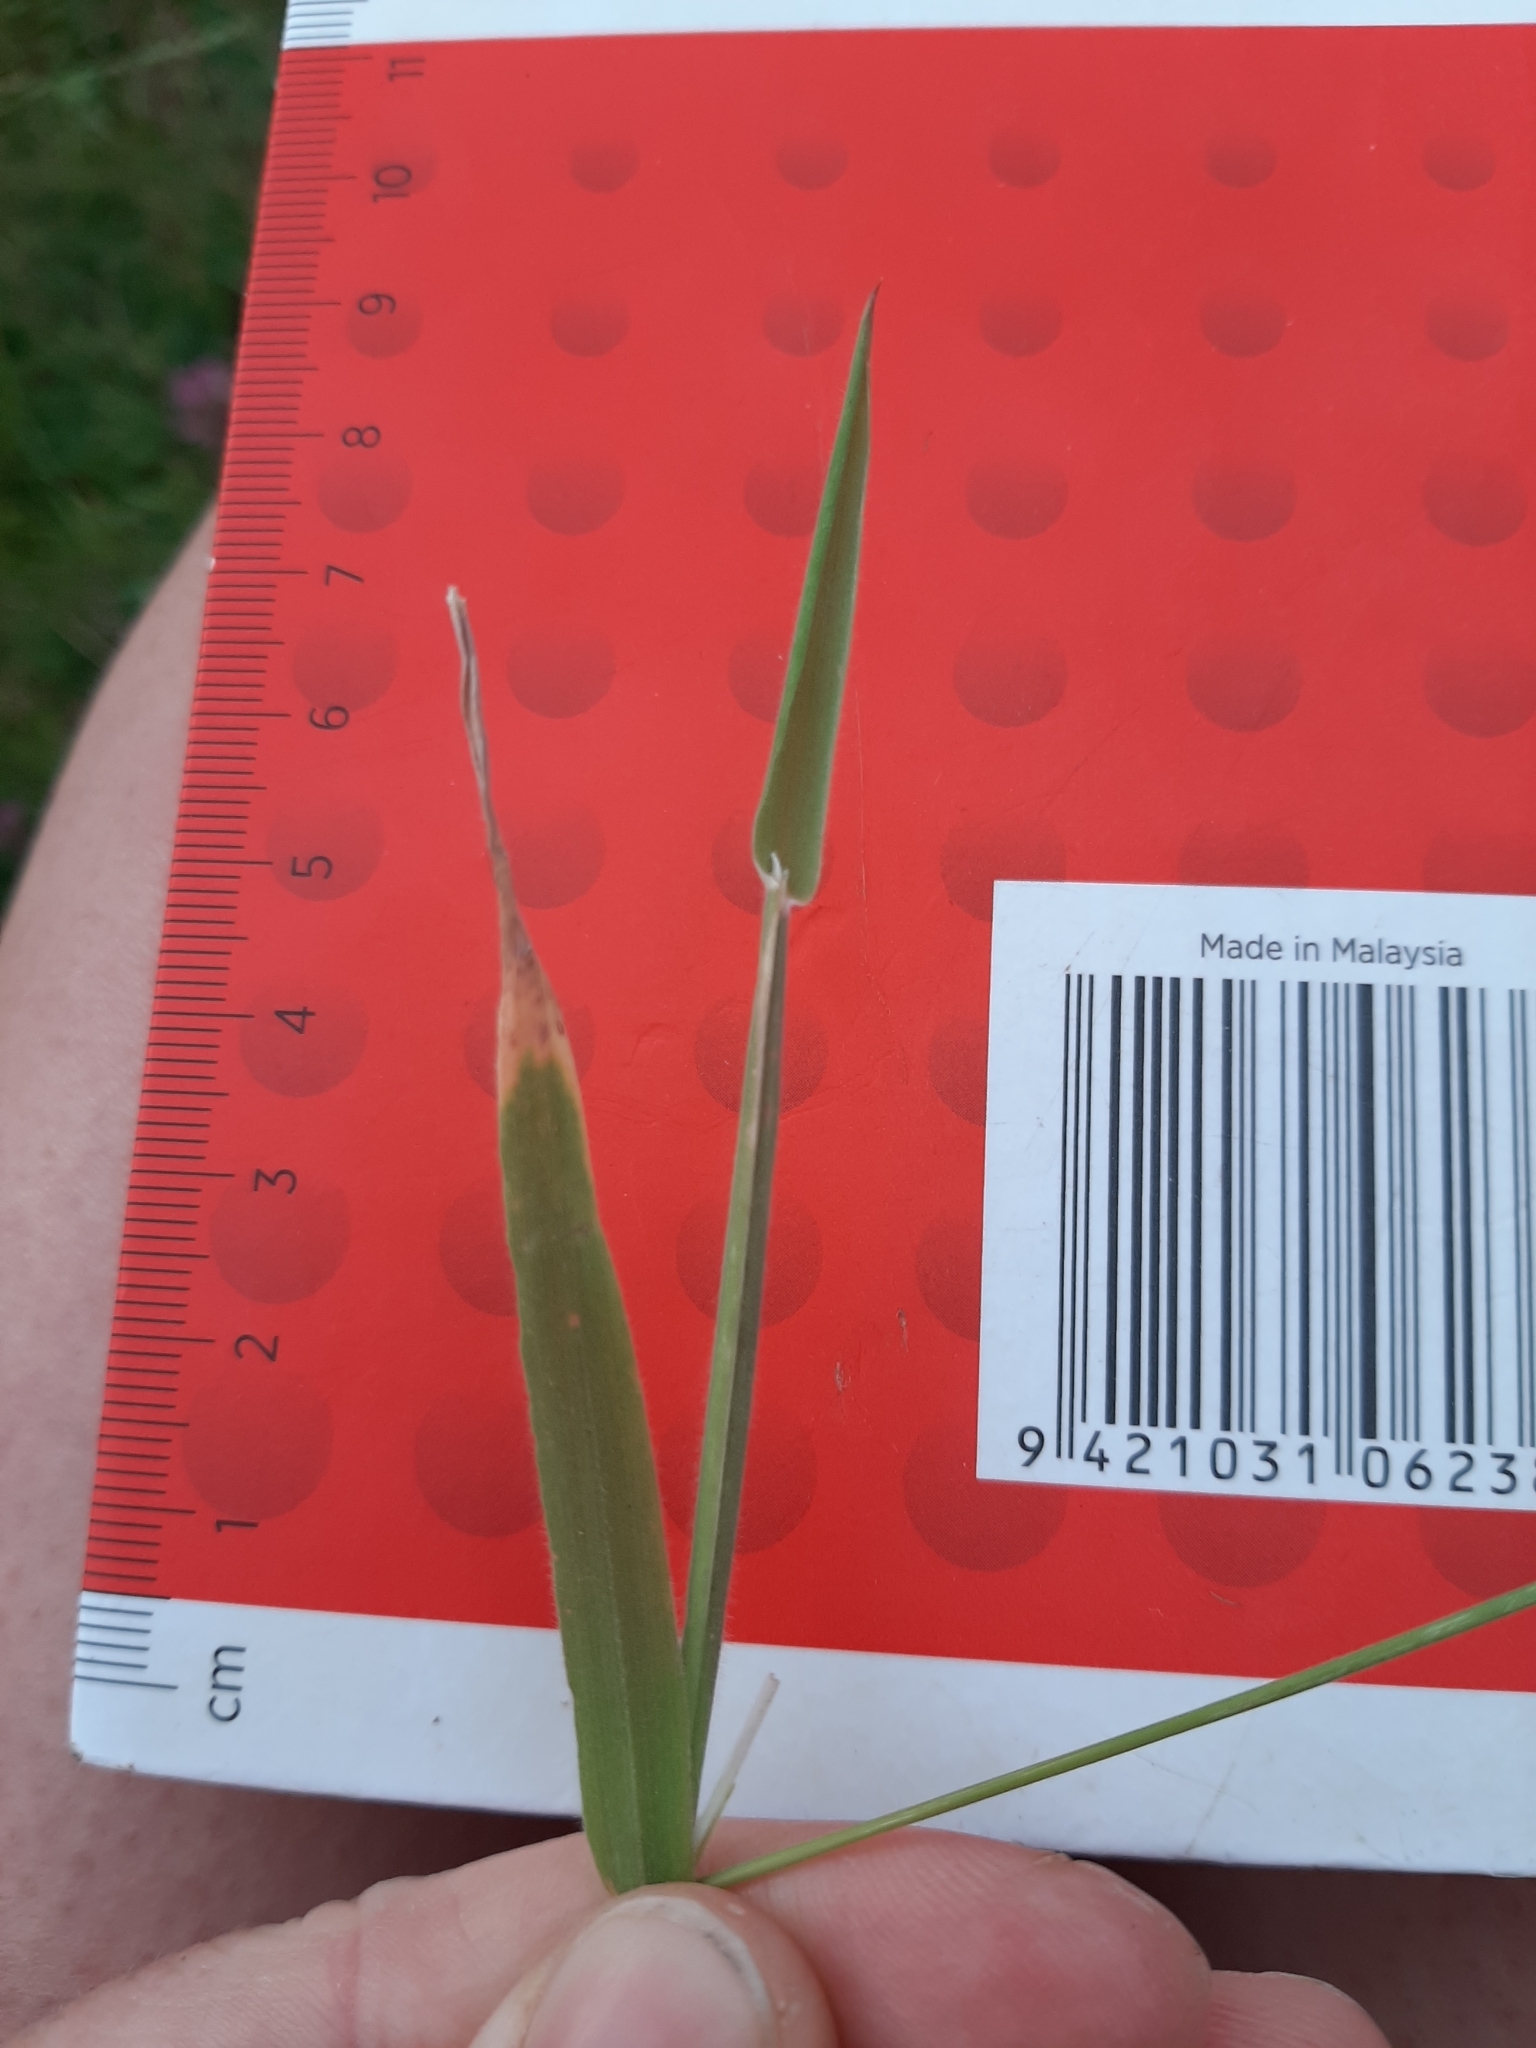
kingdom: Plantae
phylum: Tracheophyta
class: Liliopsida
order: Poales
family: Poaceae
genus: Holcus
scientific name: Holcus lanatus
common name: Yorkshire-fog
